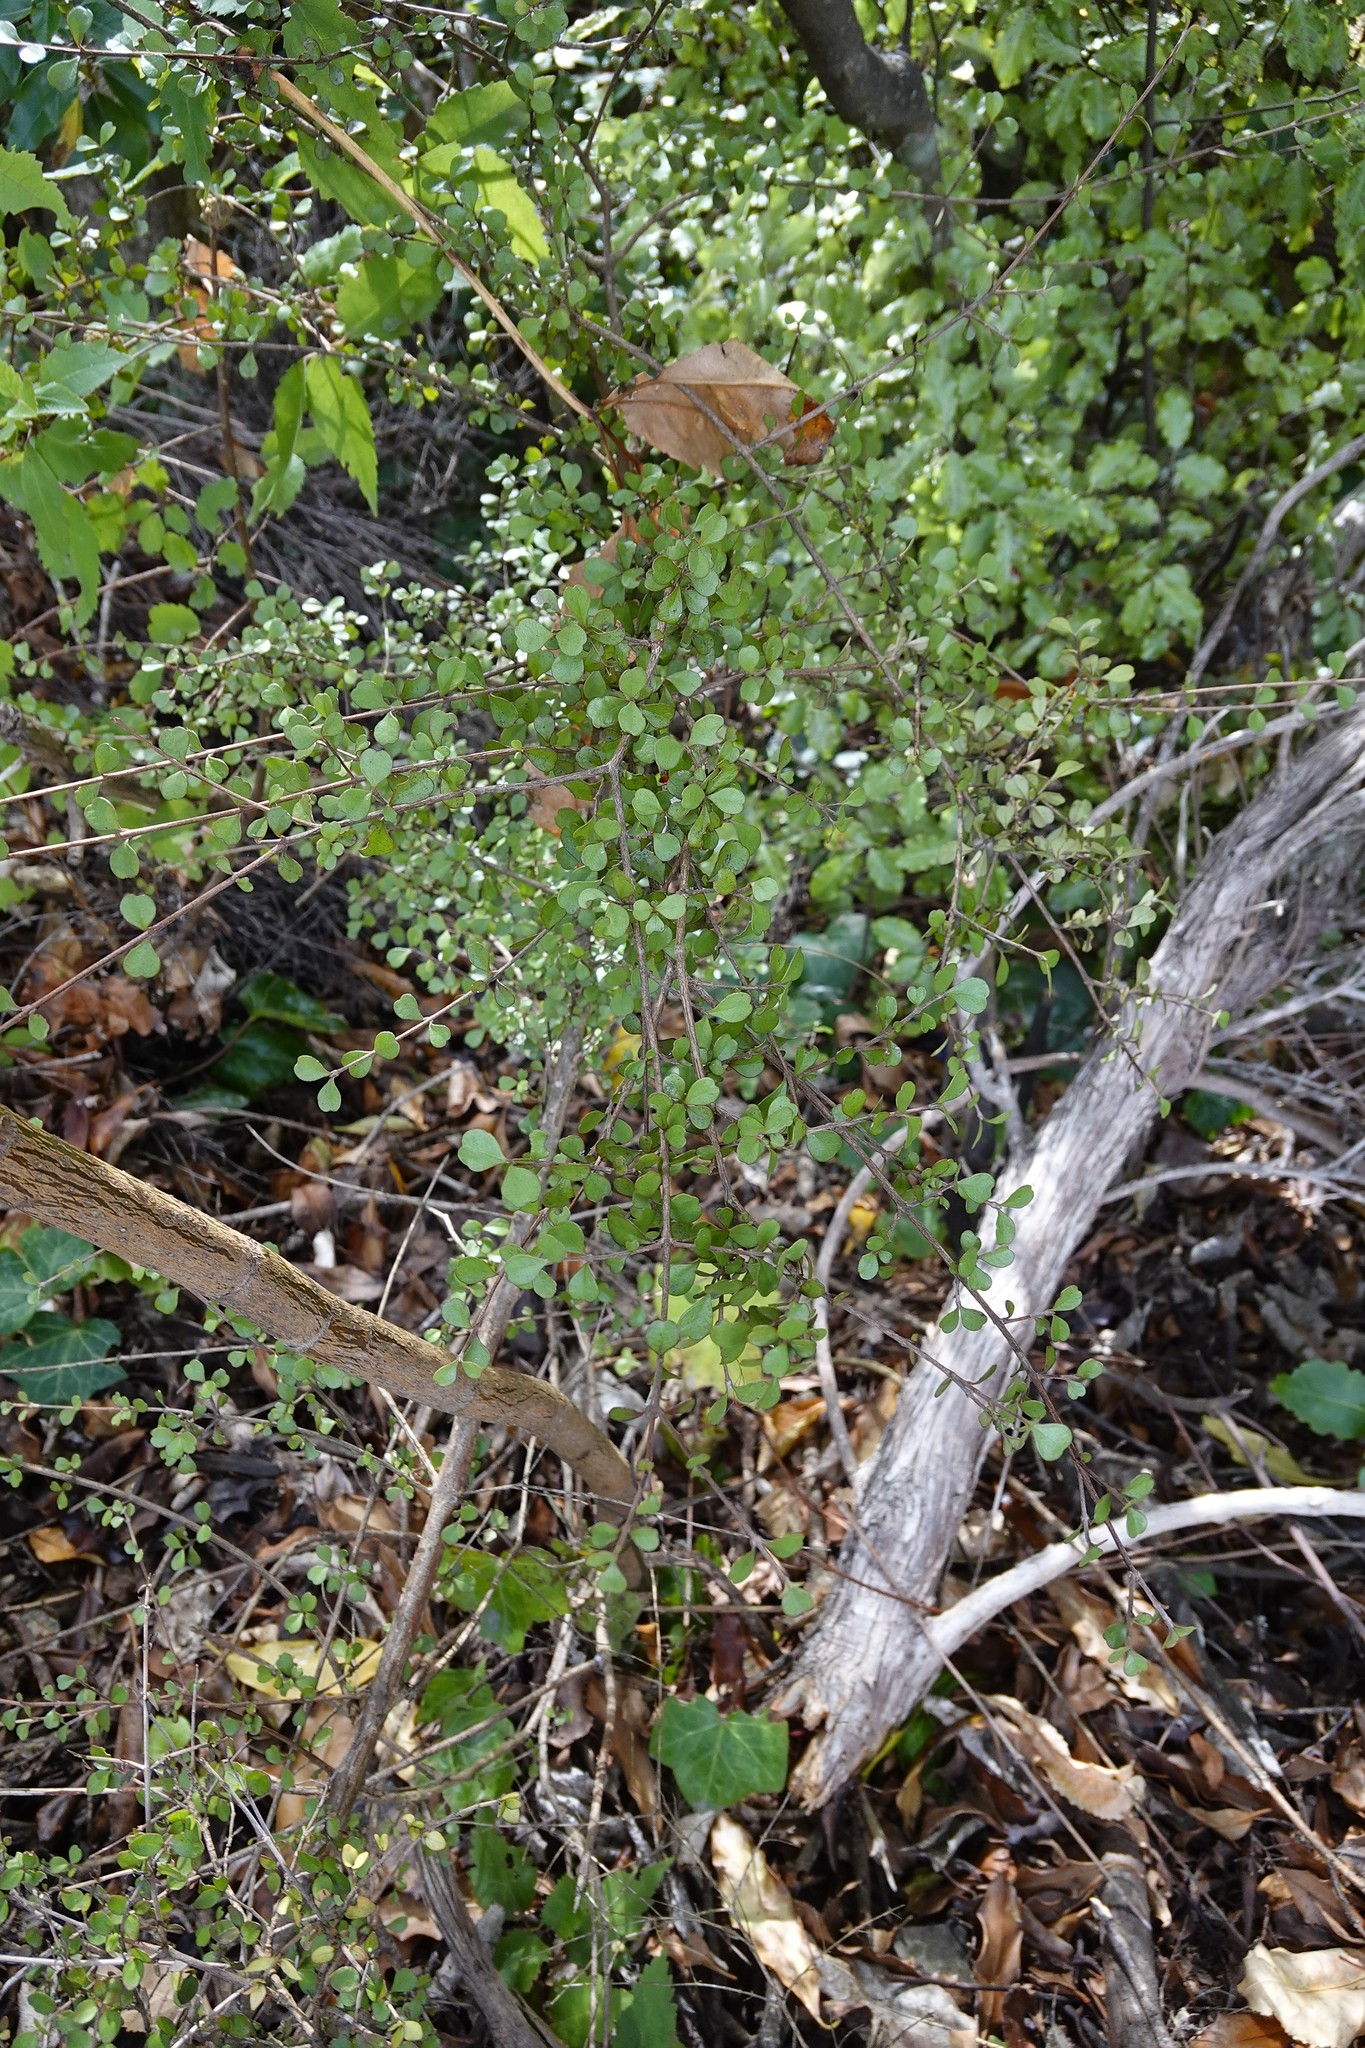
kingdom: Plantae
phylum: Tracheophyta
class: Magnoliopsida
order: Myrtales
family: Myrtaceae
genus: Lophomyrtus
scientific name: Lophomyrtus obcordata
